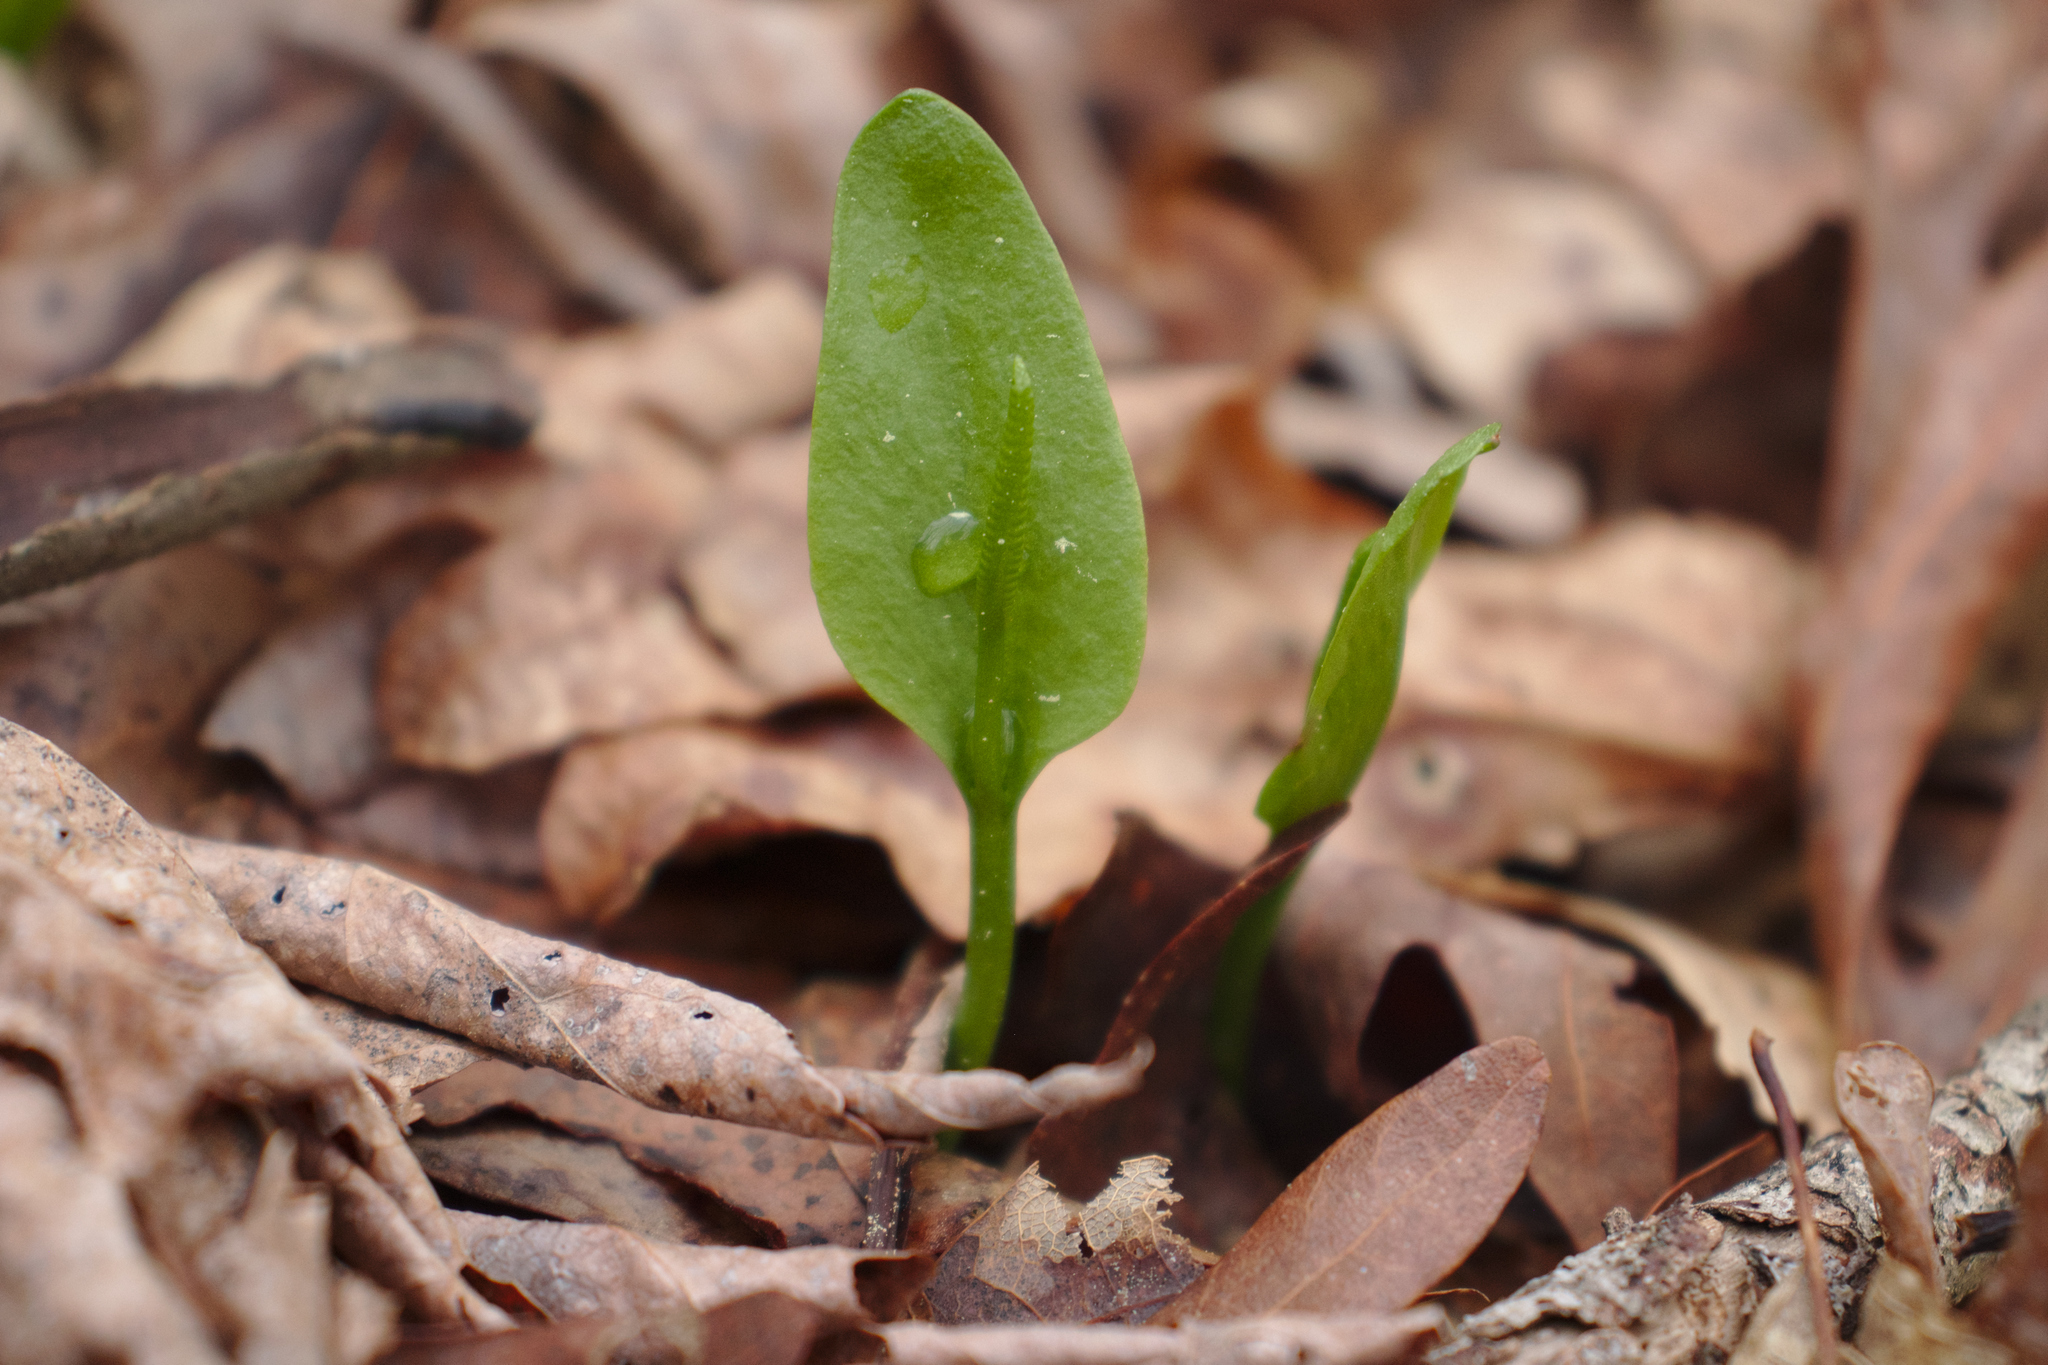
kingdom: Plantae
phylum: Tracheophyta
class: Polypodiopsida
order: Ophioglossales
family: Ophioglossaceae
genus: Ophioglossum
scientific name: Ophioglossum vulgatum
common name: Adder's-tongue
